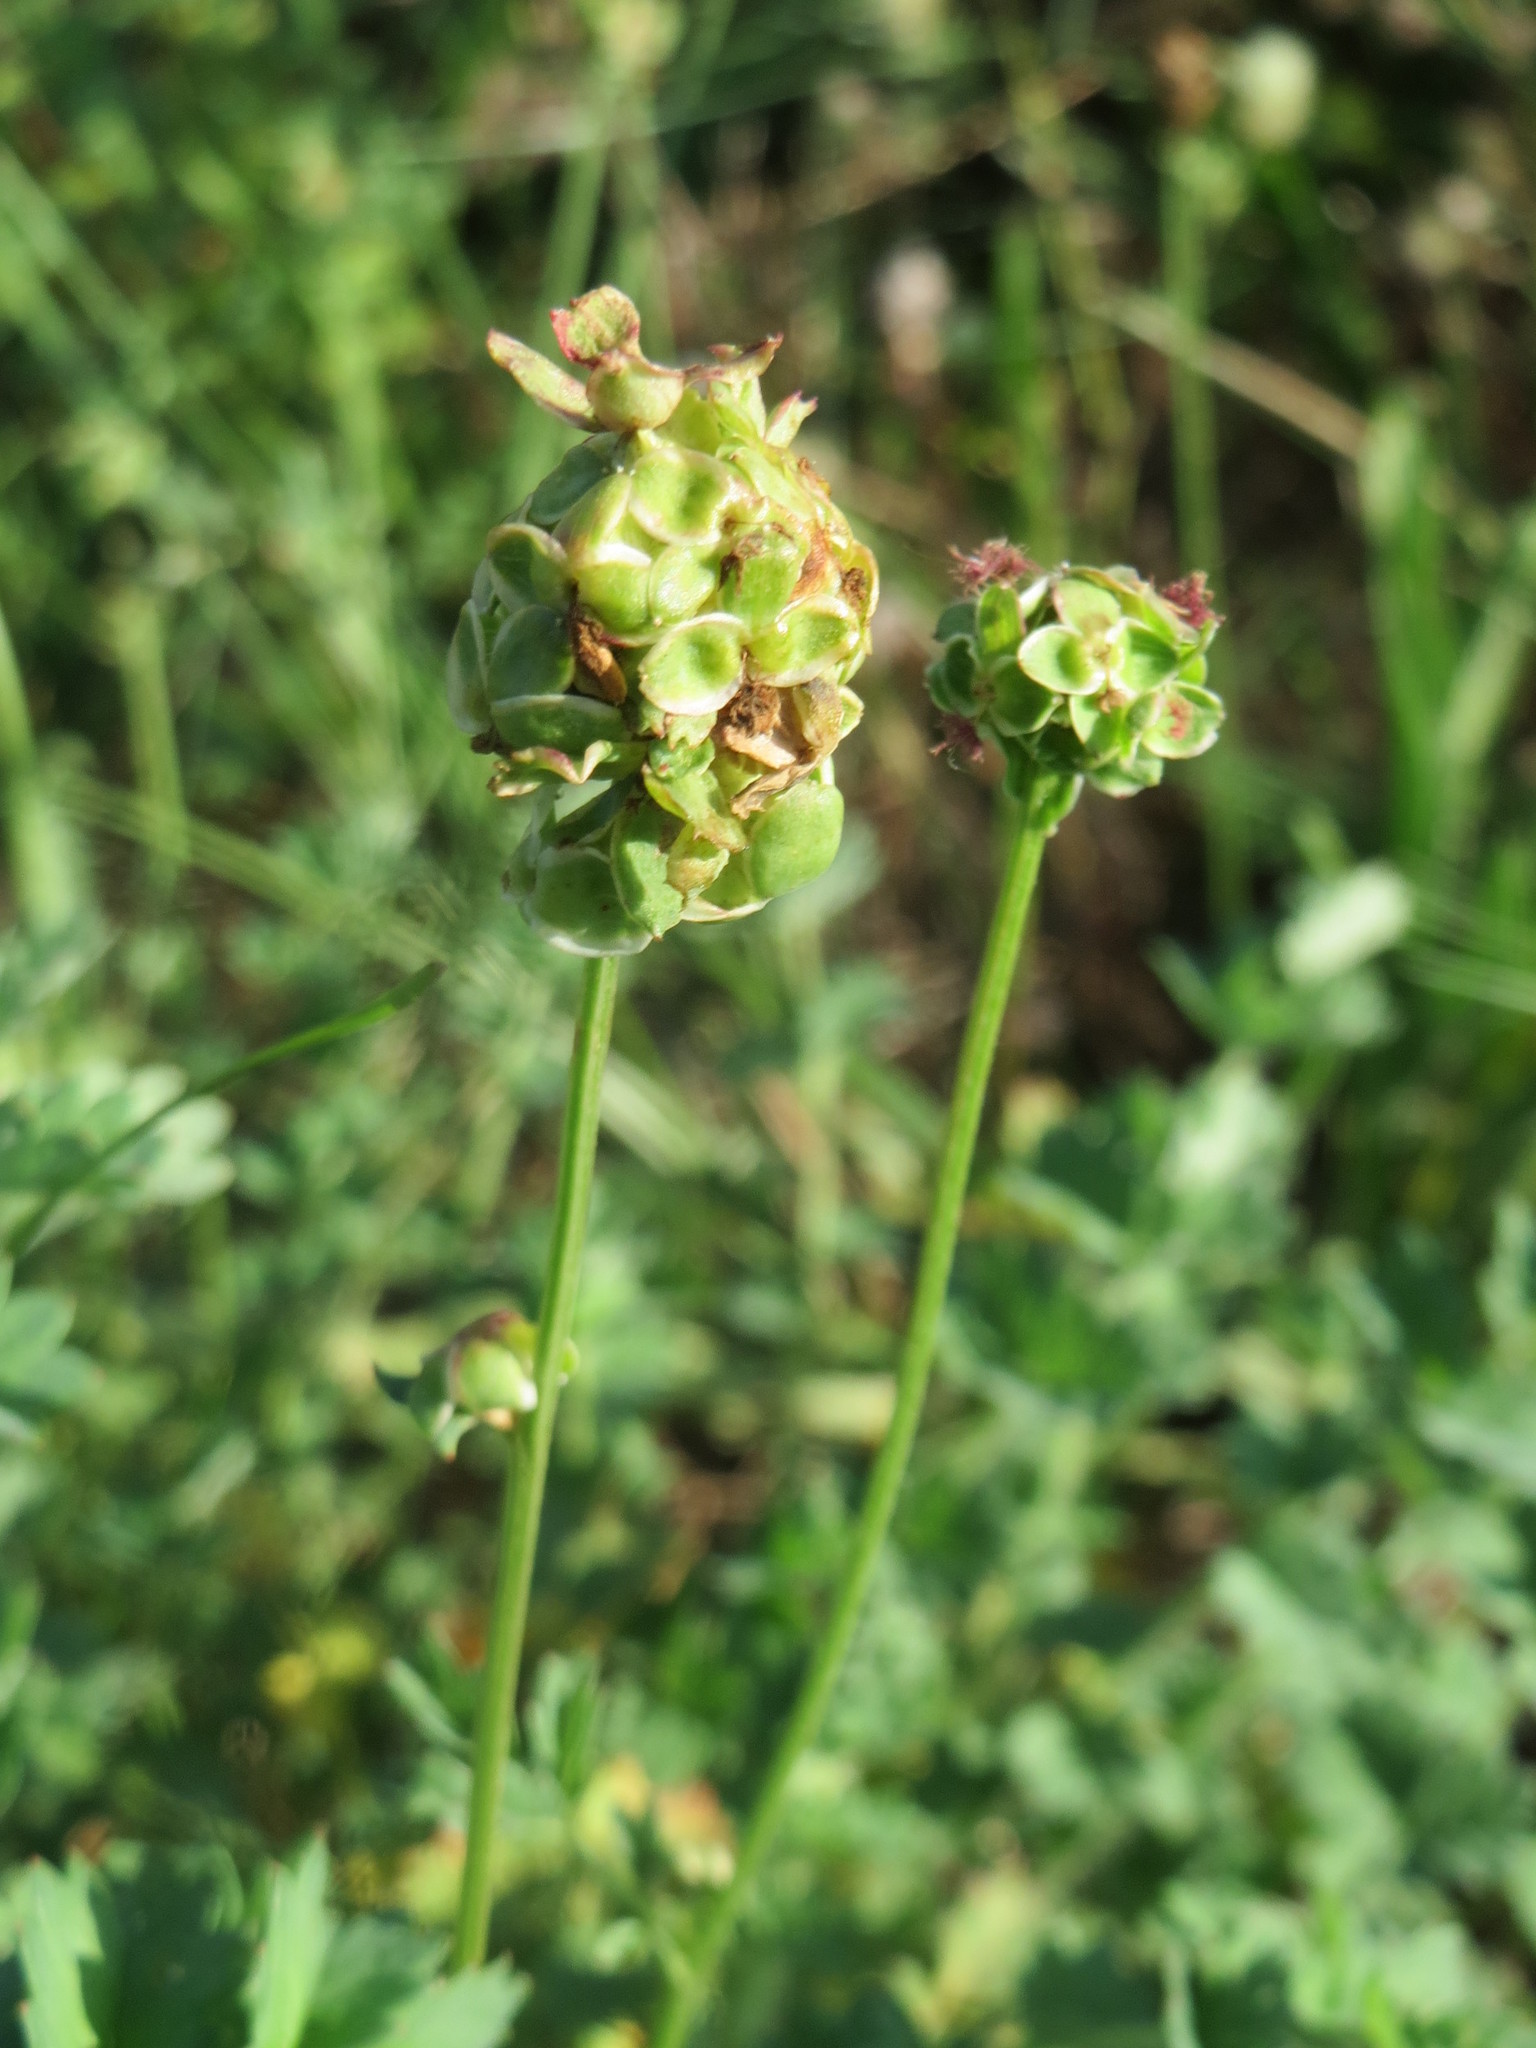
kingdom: Plantae
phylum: Tracheophyta
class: Magnoliopsida
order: Rosales
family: Rosaceae
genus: Poterium
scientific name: Poterium sanguisorba
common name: Salad burnet
